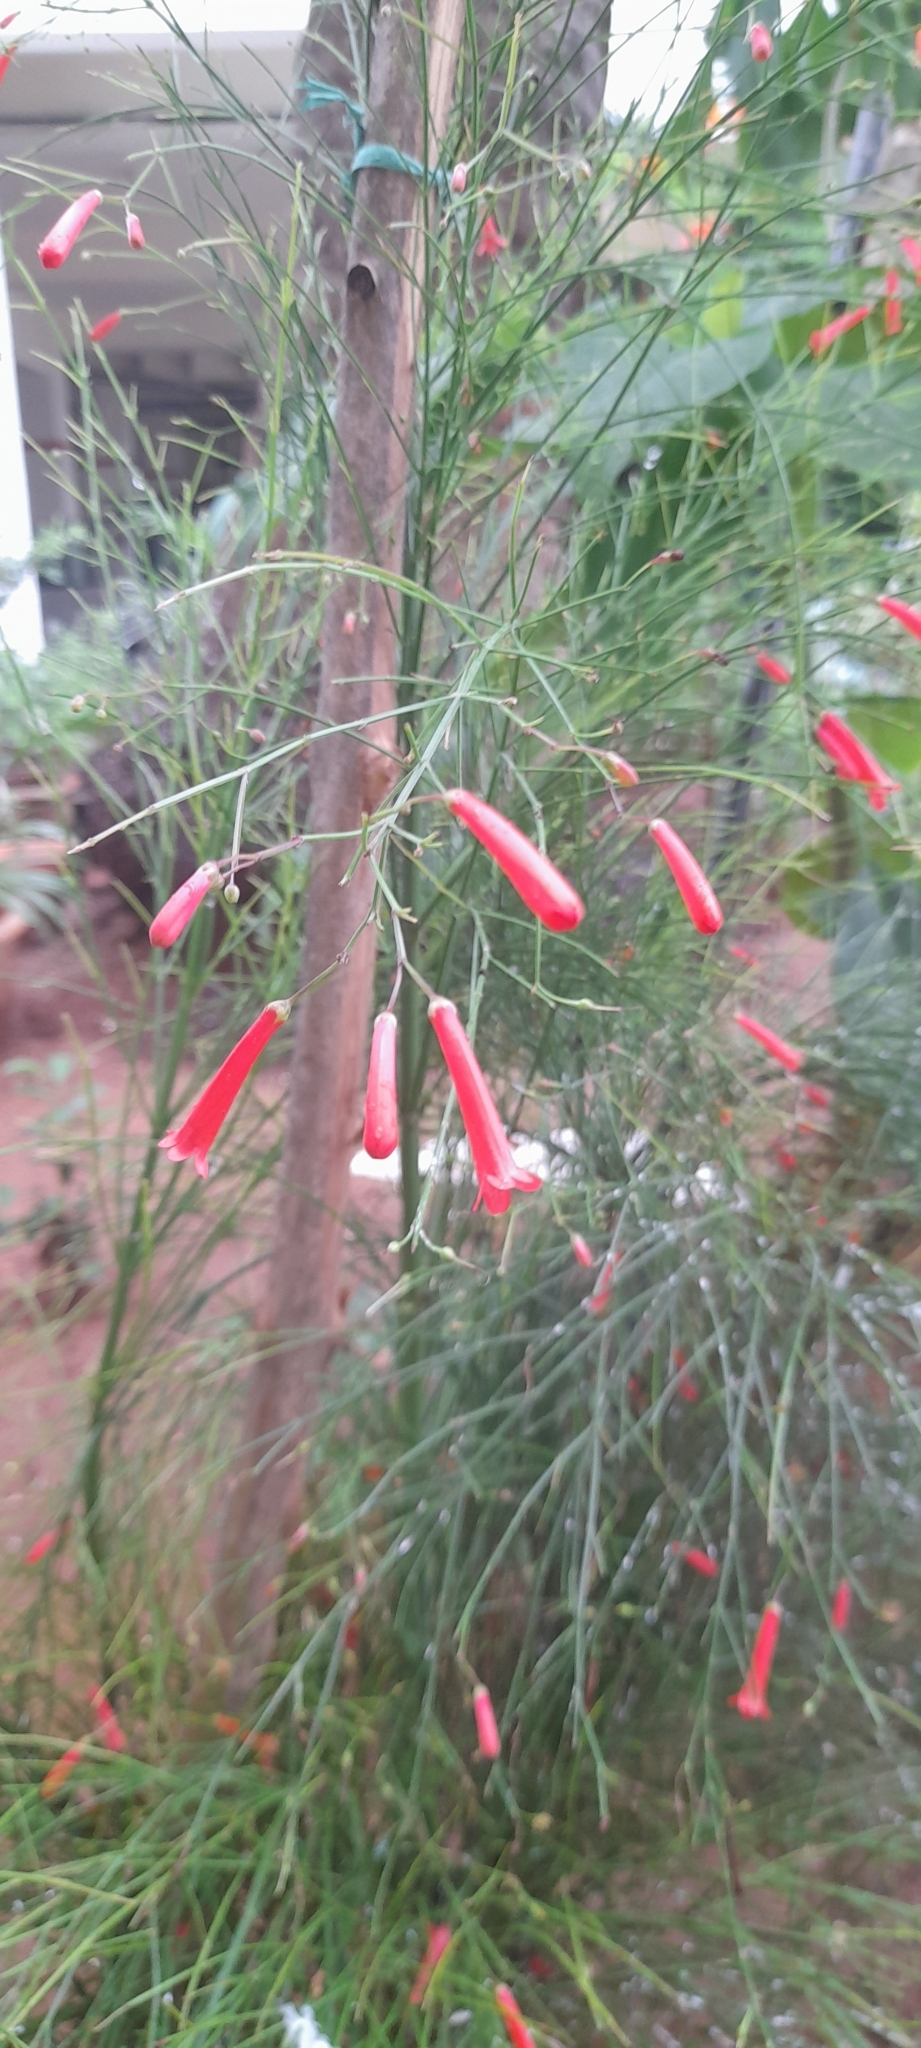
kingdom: Plantae
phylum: Tracheophyta
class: Magnoliopsida
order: Lamiales
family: Plantaginaceae
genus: Russelia
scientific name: Russelia equisetiformis
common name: Fountainbush
